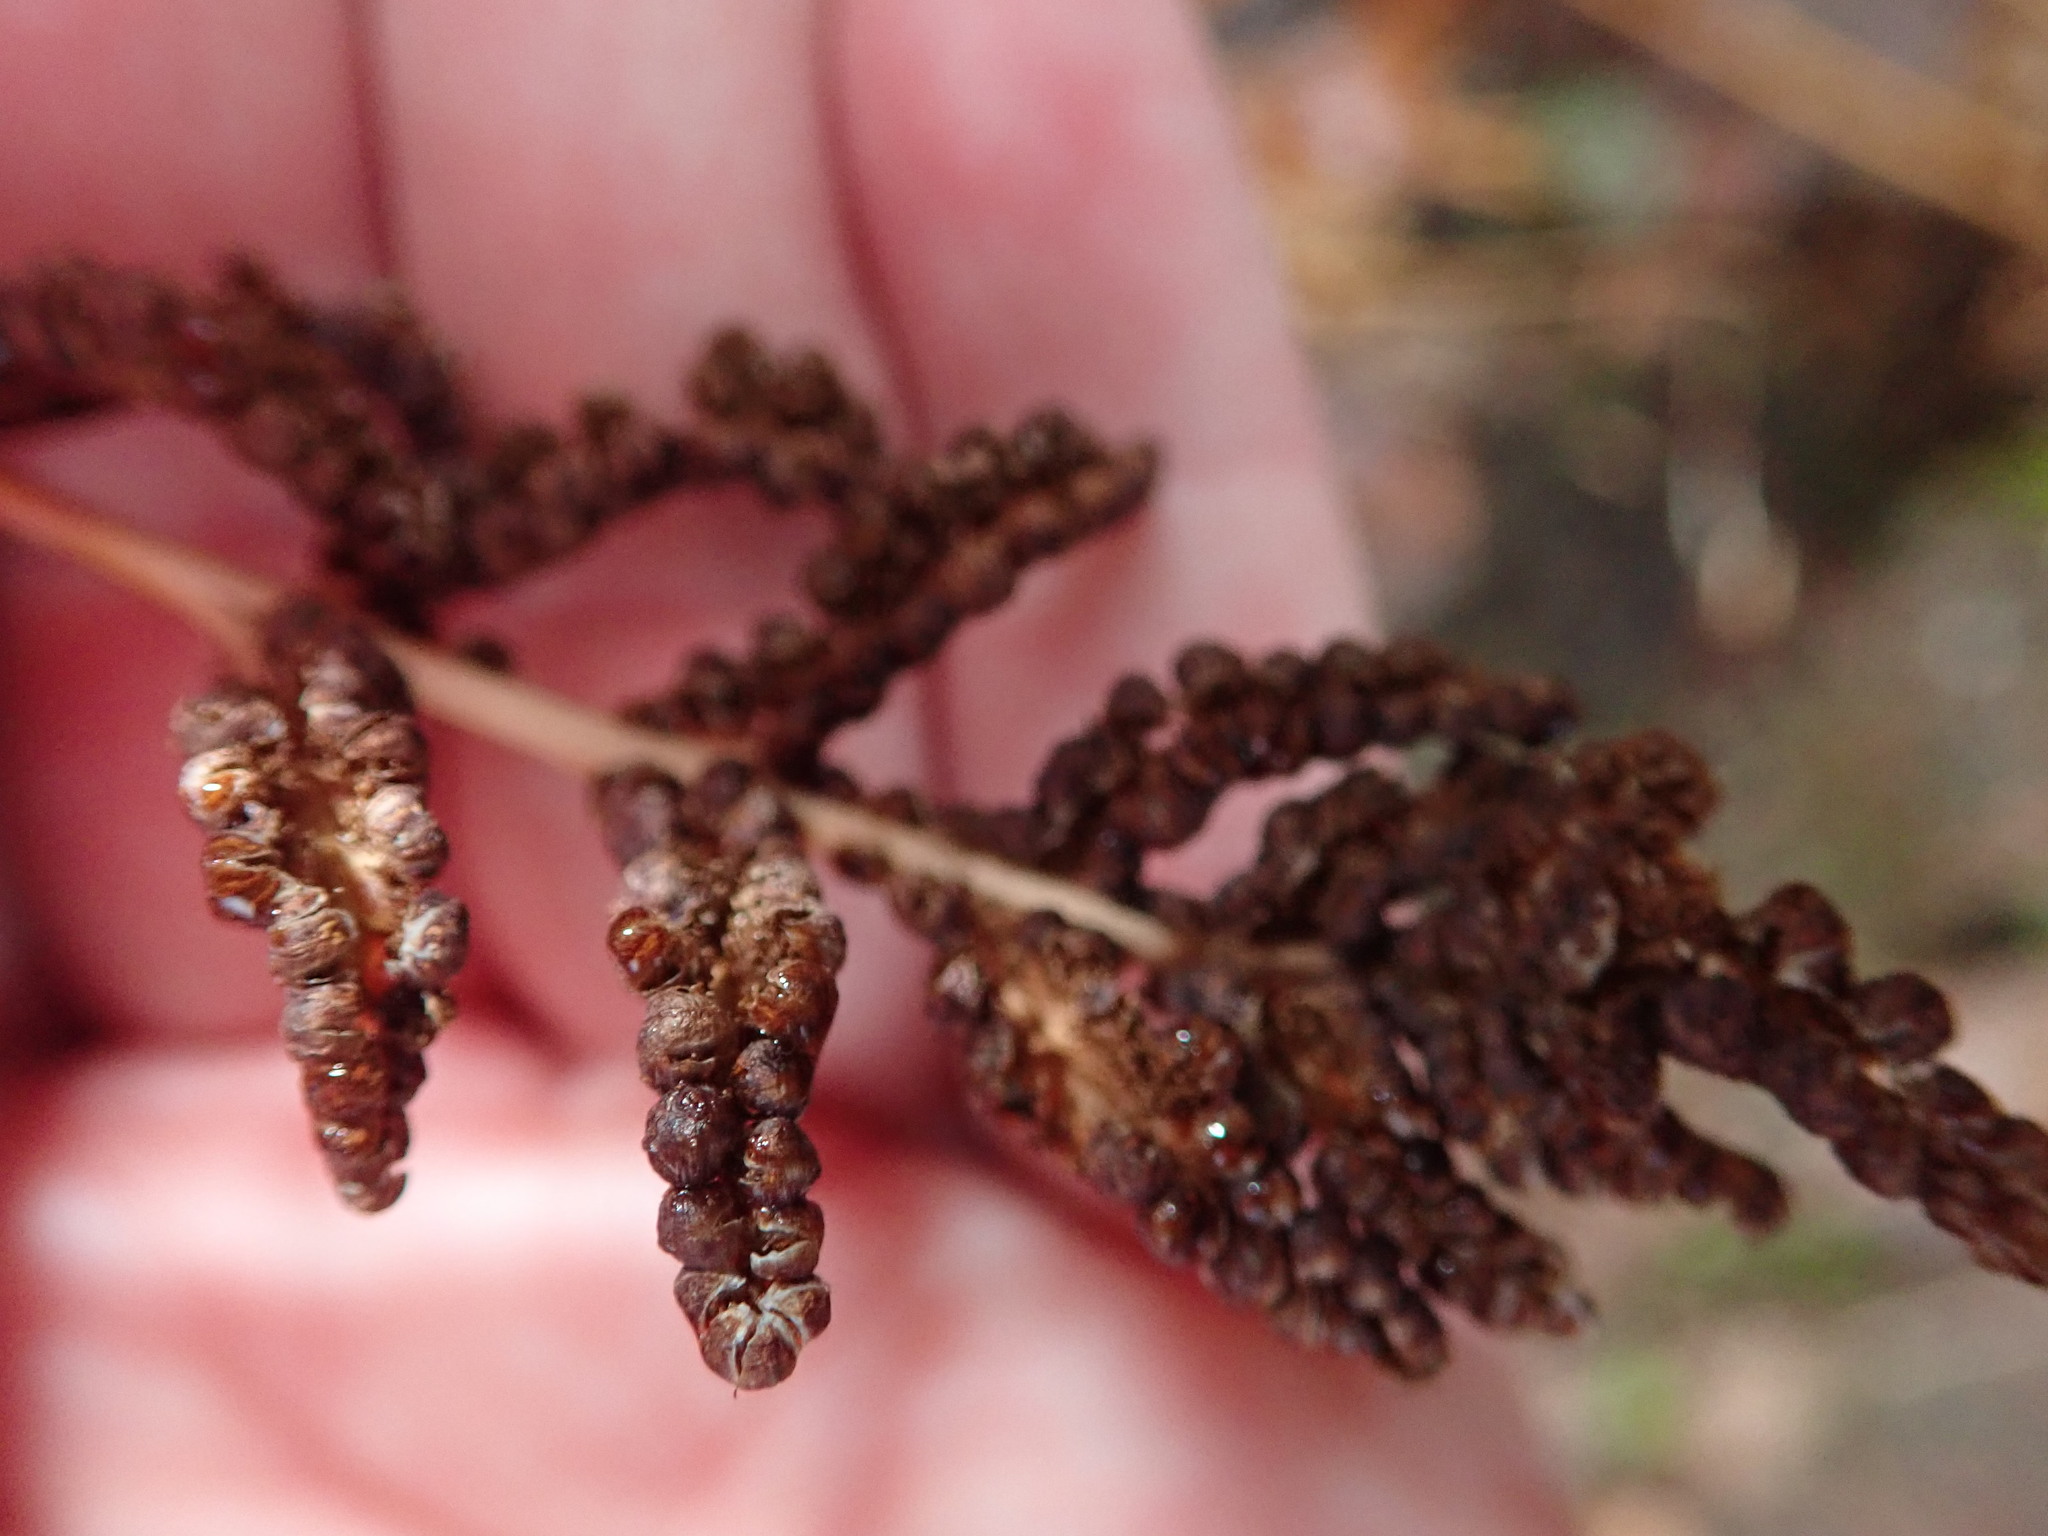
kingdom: Plantae
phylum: Tracheophyta
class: Polypodiopsida
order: Polypodiales
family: Onocleaceae
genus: Onoclea
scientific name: Onoclea sensibilis
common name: Sensitive fern
